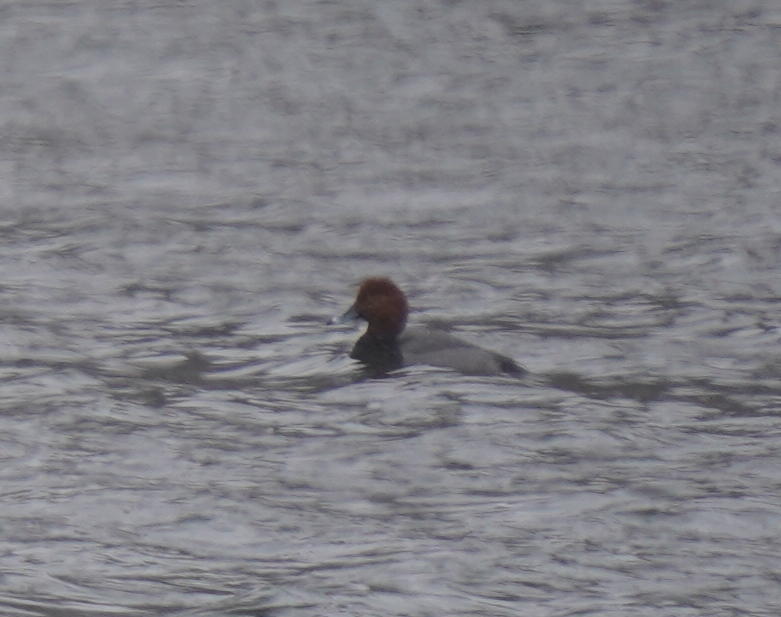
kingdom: Animalia
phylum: Chordata
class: Aves
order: Anseriformes
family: Anatidae
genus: Aythya
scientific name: Aythya americana
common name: Redhead
